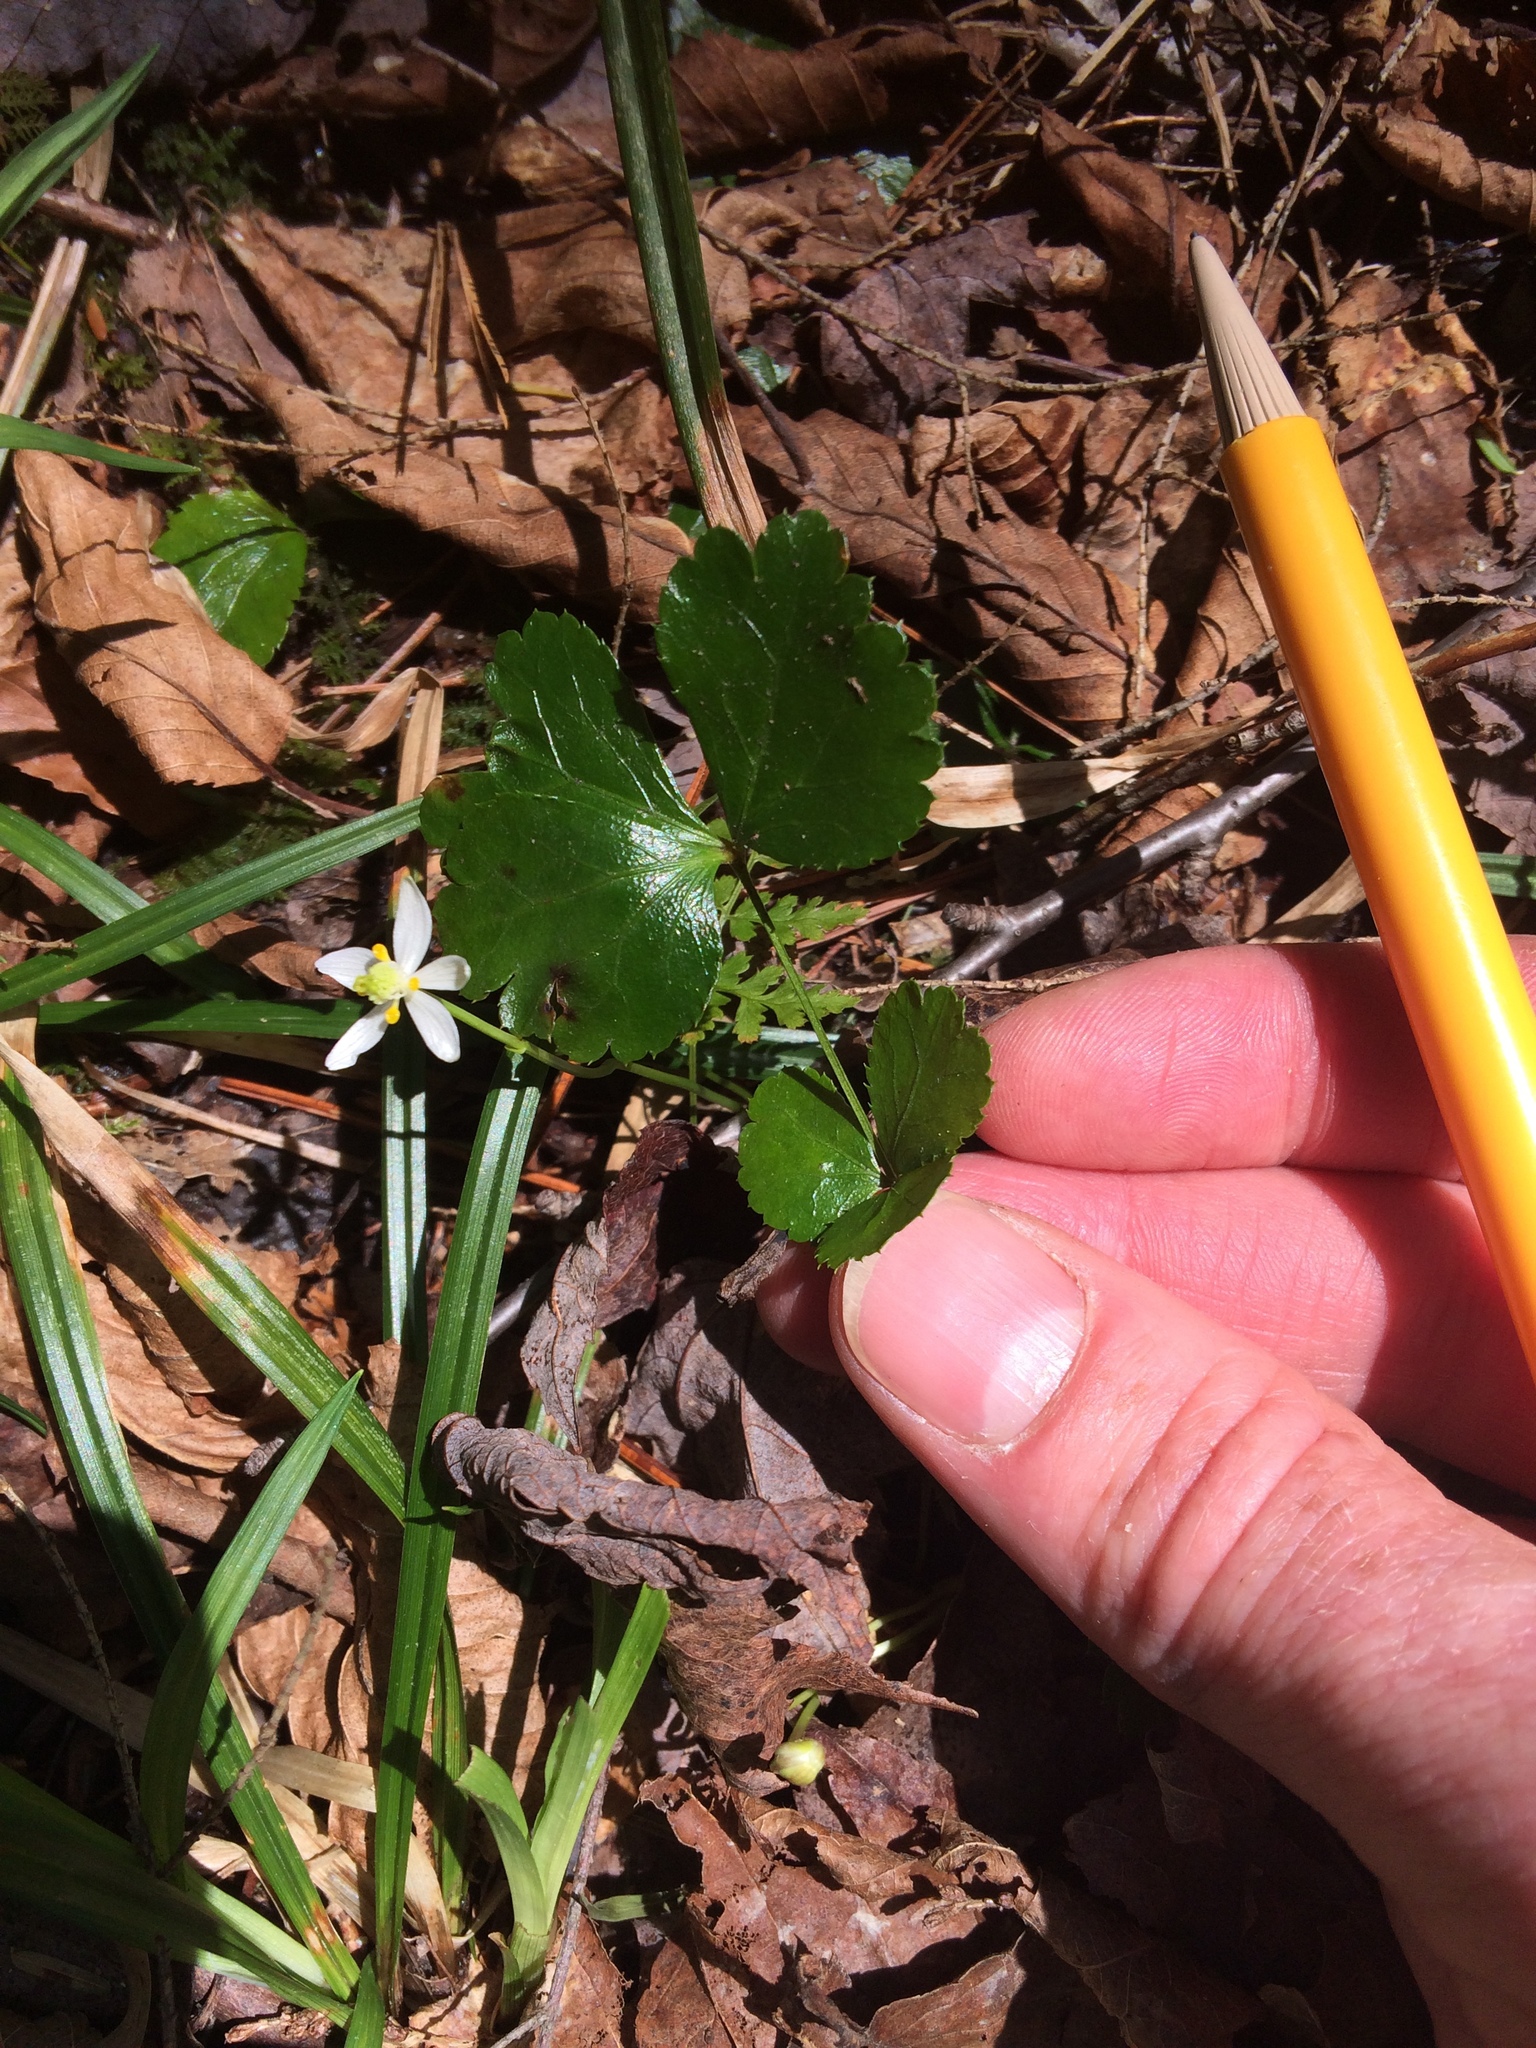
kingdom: Plantae
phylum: Tracheophyta
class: Magnoliopsida
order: Ranunculales
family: Ranunculaceae
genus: Coptis
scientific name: Coptis trifolia
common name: Canker-root
